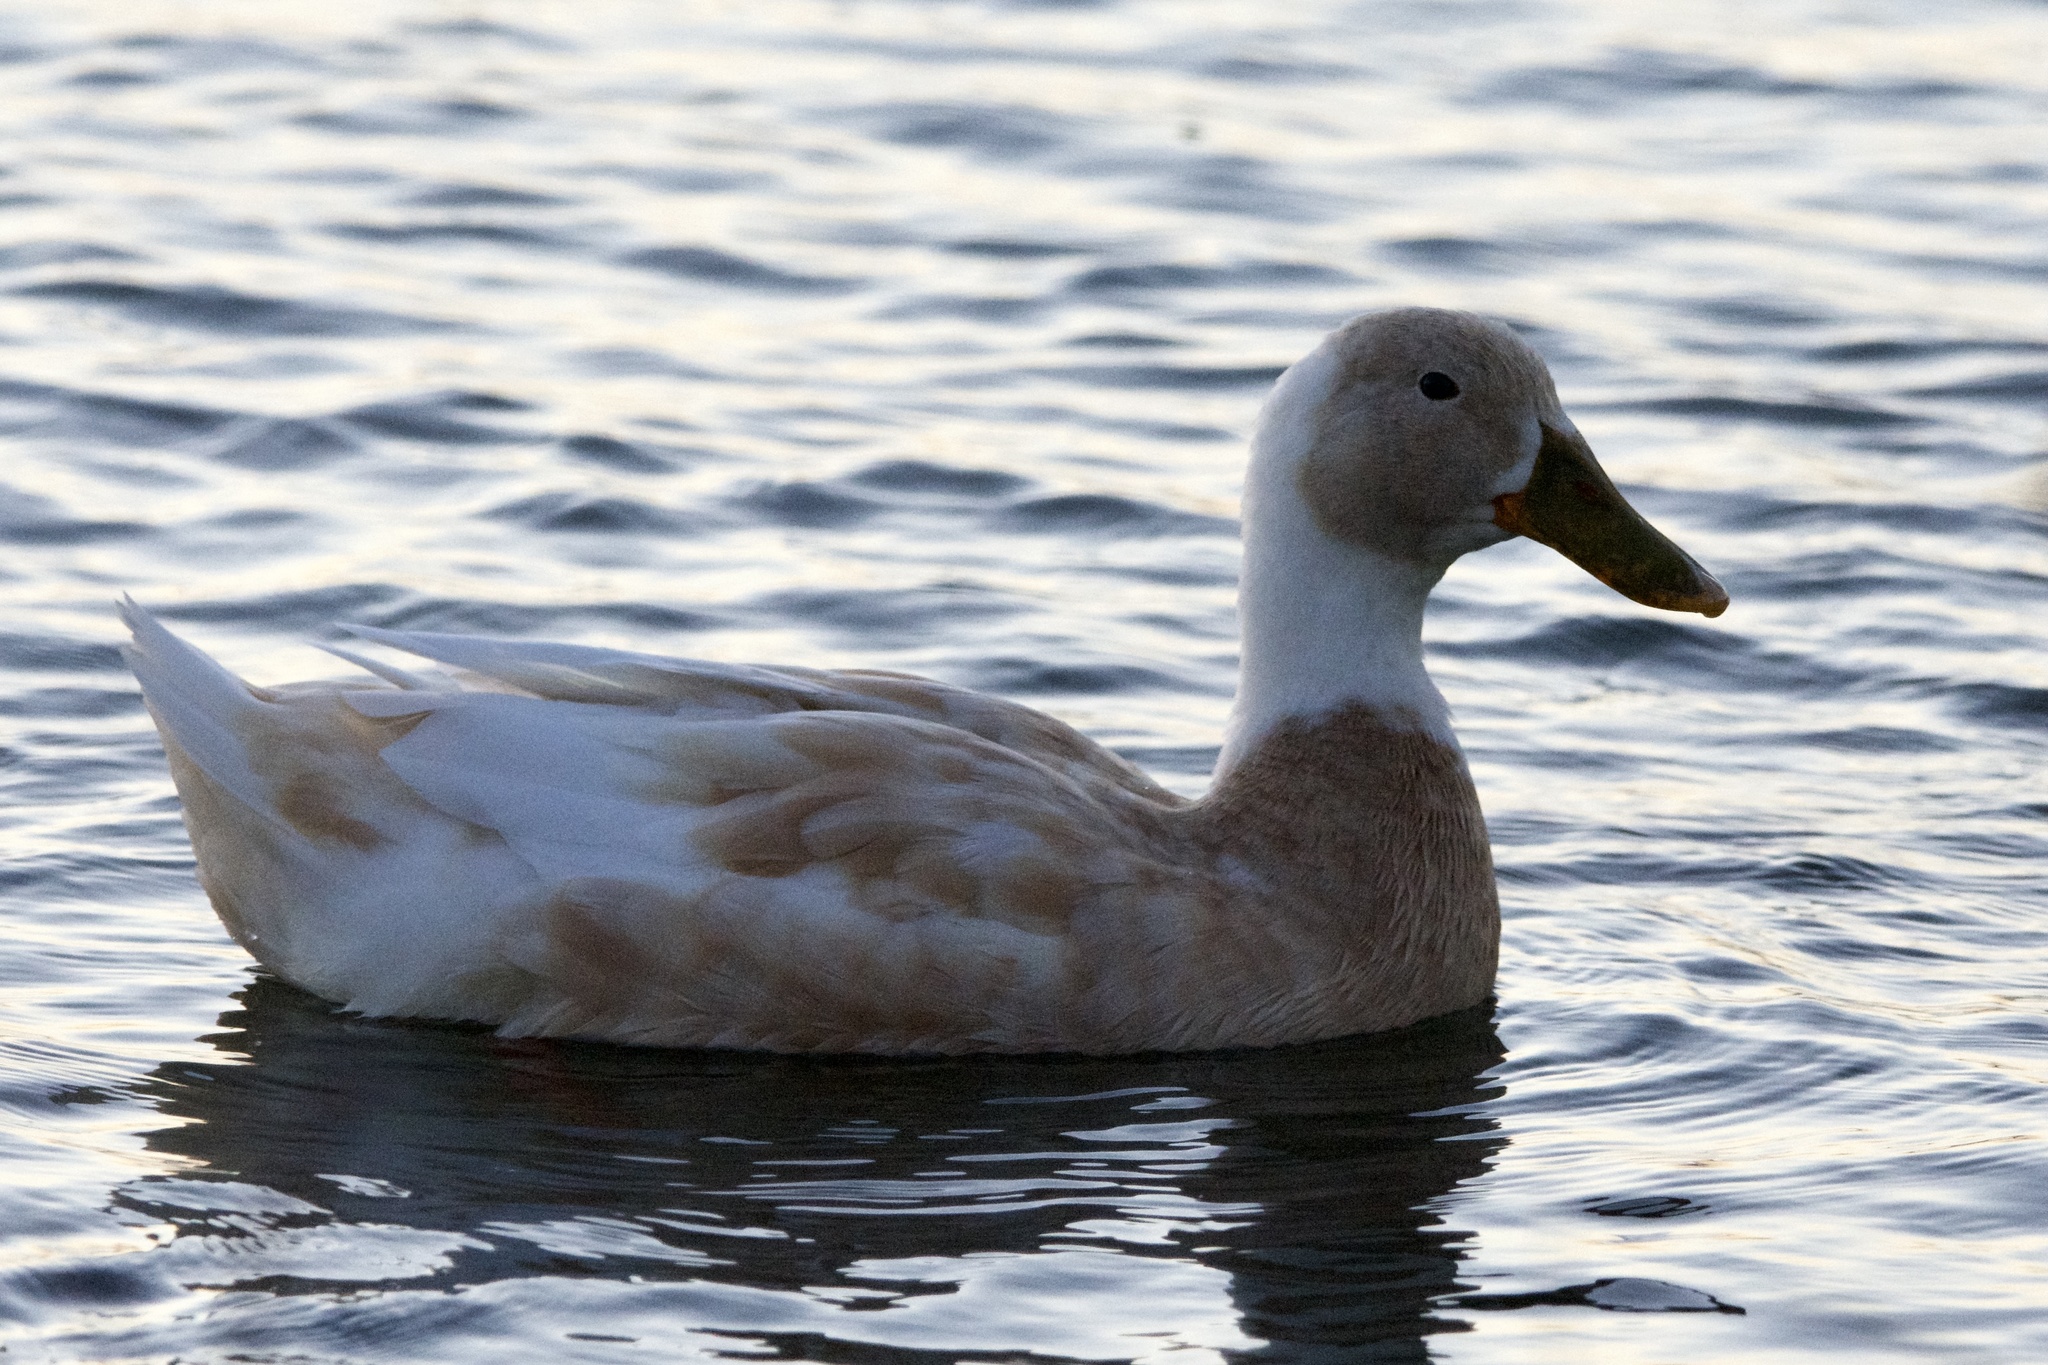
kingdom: Animalia
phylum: Chordata
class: Aves
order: Anseriformes
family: Anatidae
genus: Anas
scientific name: Anas platyrhynchos
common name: Mallard
